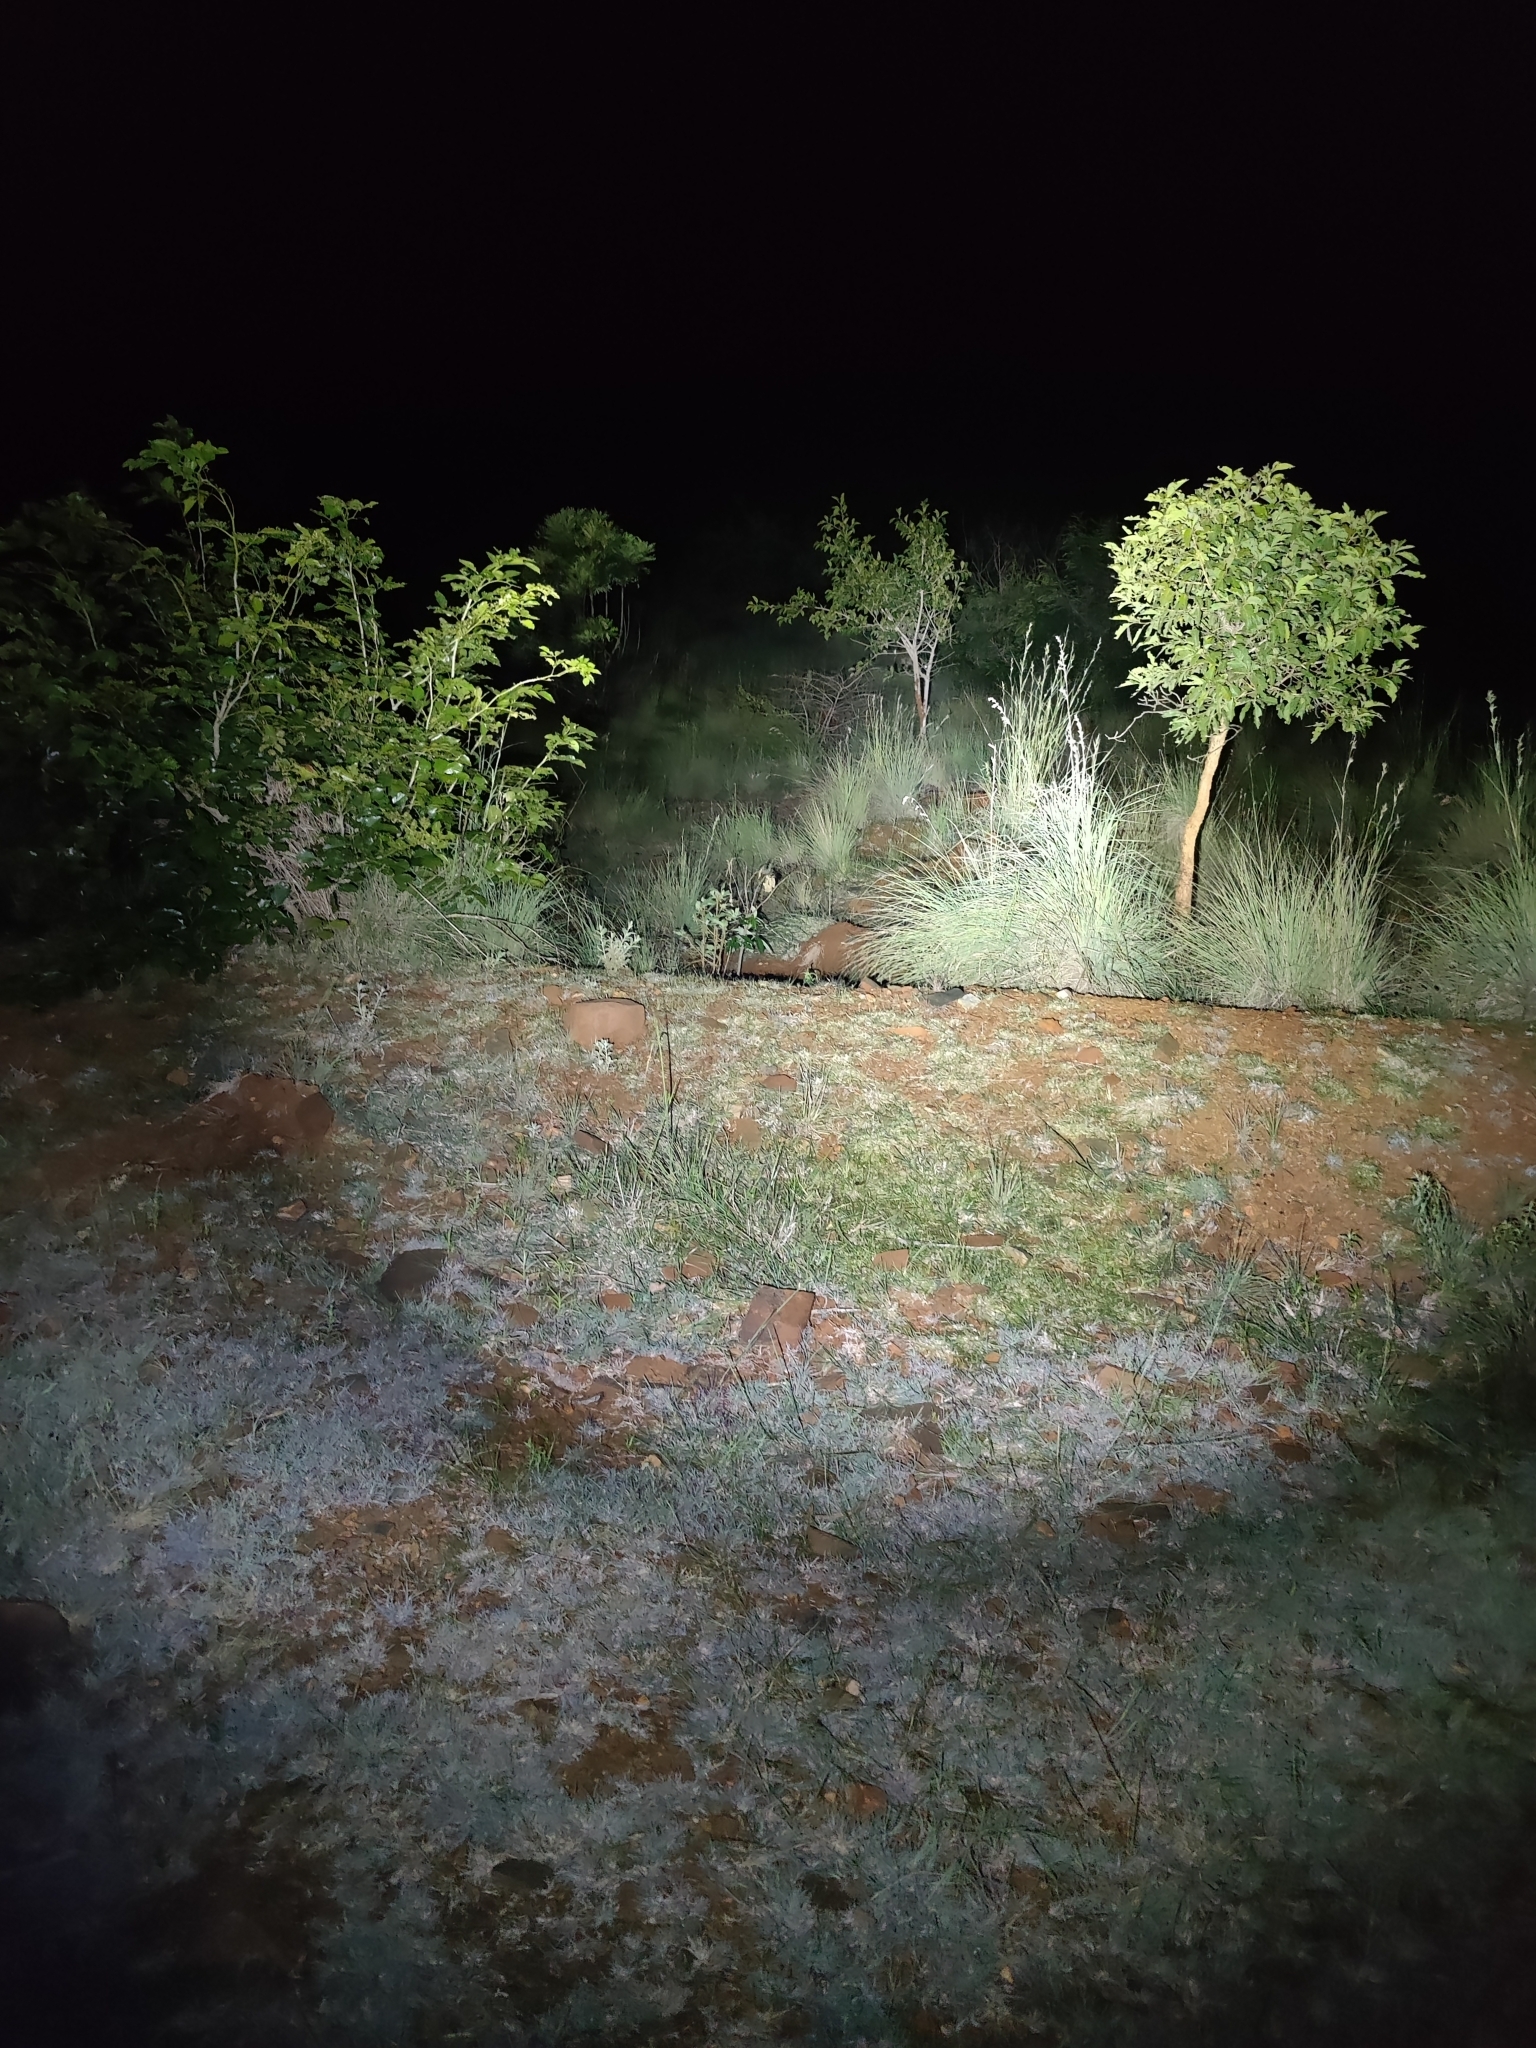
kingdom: Animalia
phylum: Chordata
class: Mammalia
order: Artiodactyla
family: Bovidae
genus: Gazella
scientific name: Gazella bennettii
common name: Indian gazelle
